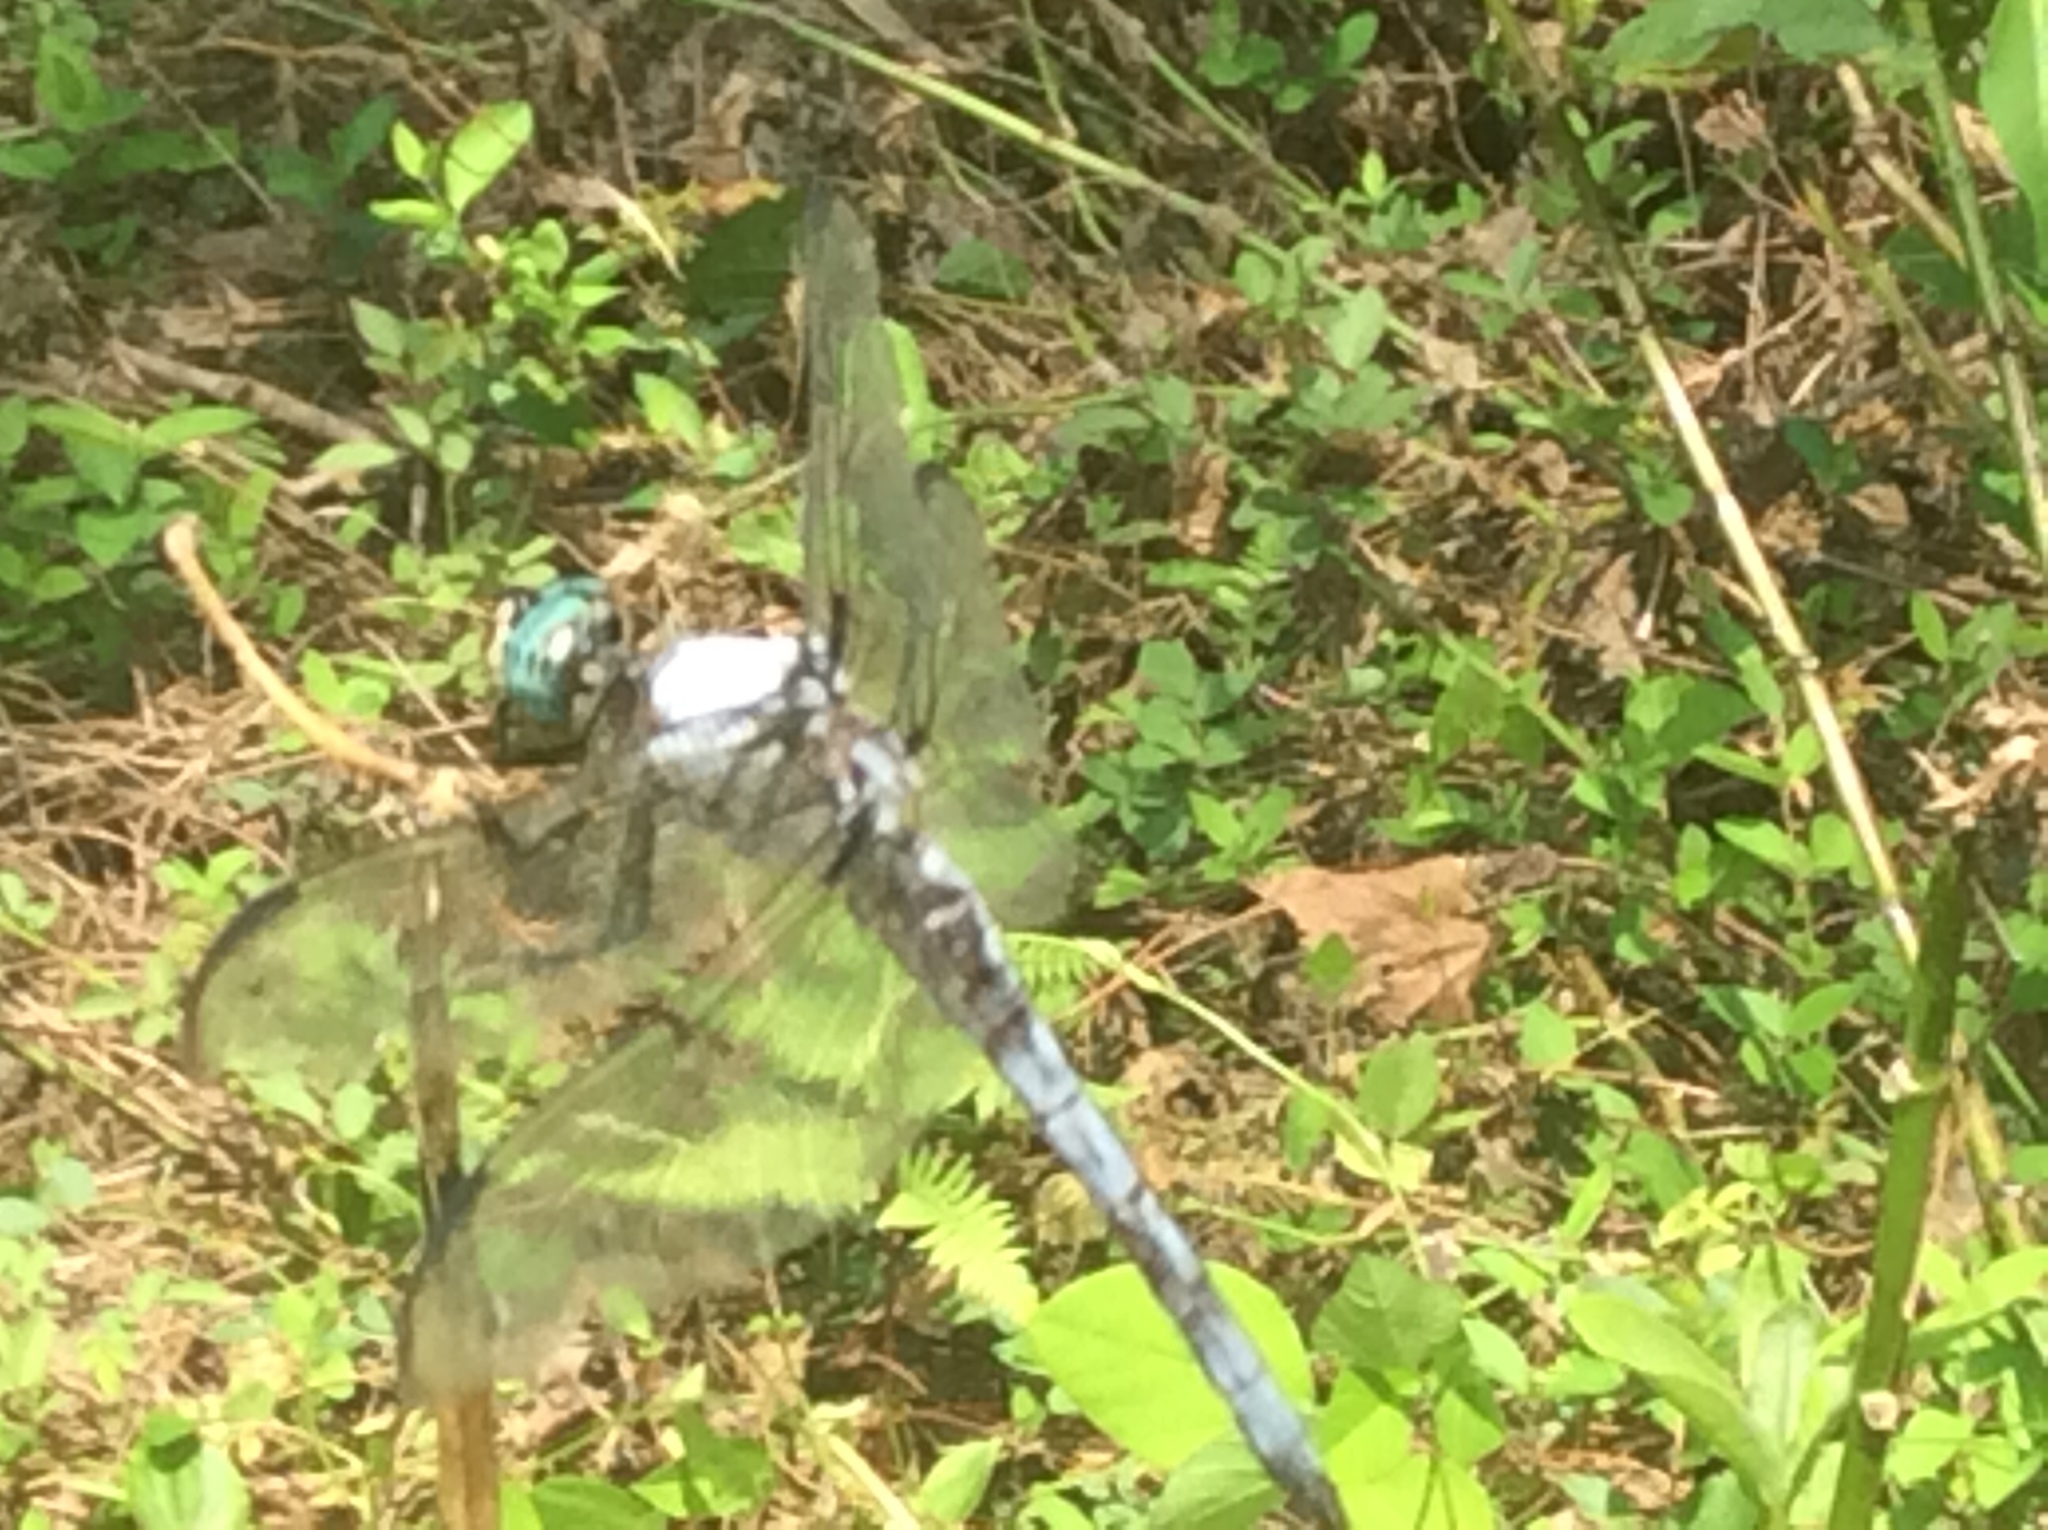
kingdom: Animalia
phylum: Arthropoda
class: Insecta
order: Odonata
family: Libellulidae
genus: Libellula
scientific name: Libellula vibrans
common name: Great blue skimmer
